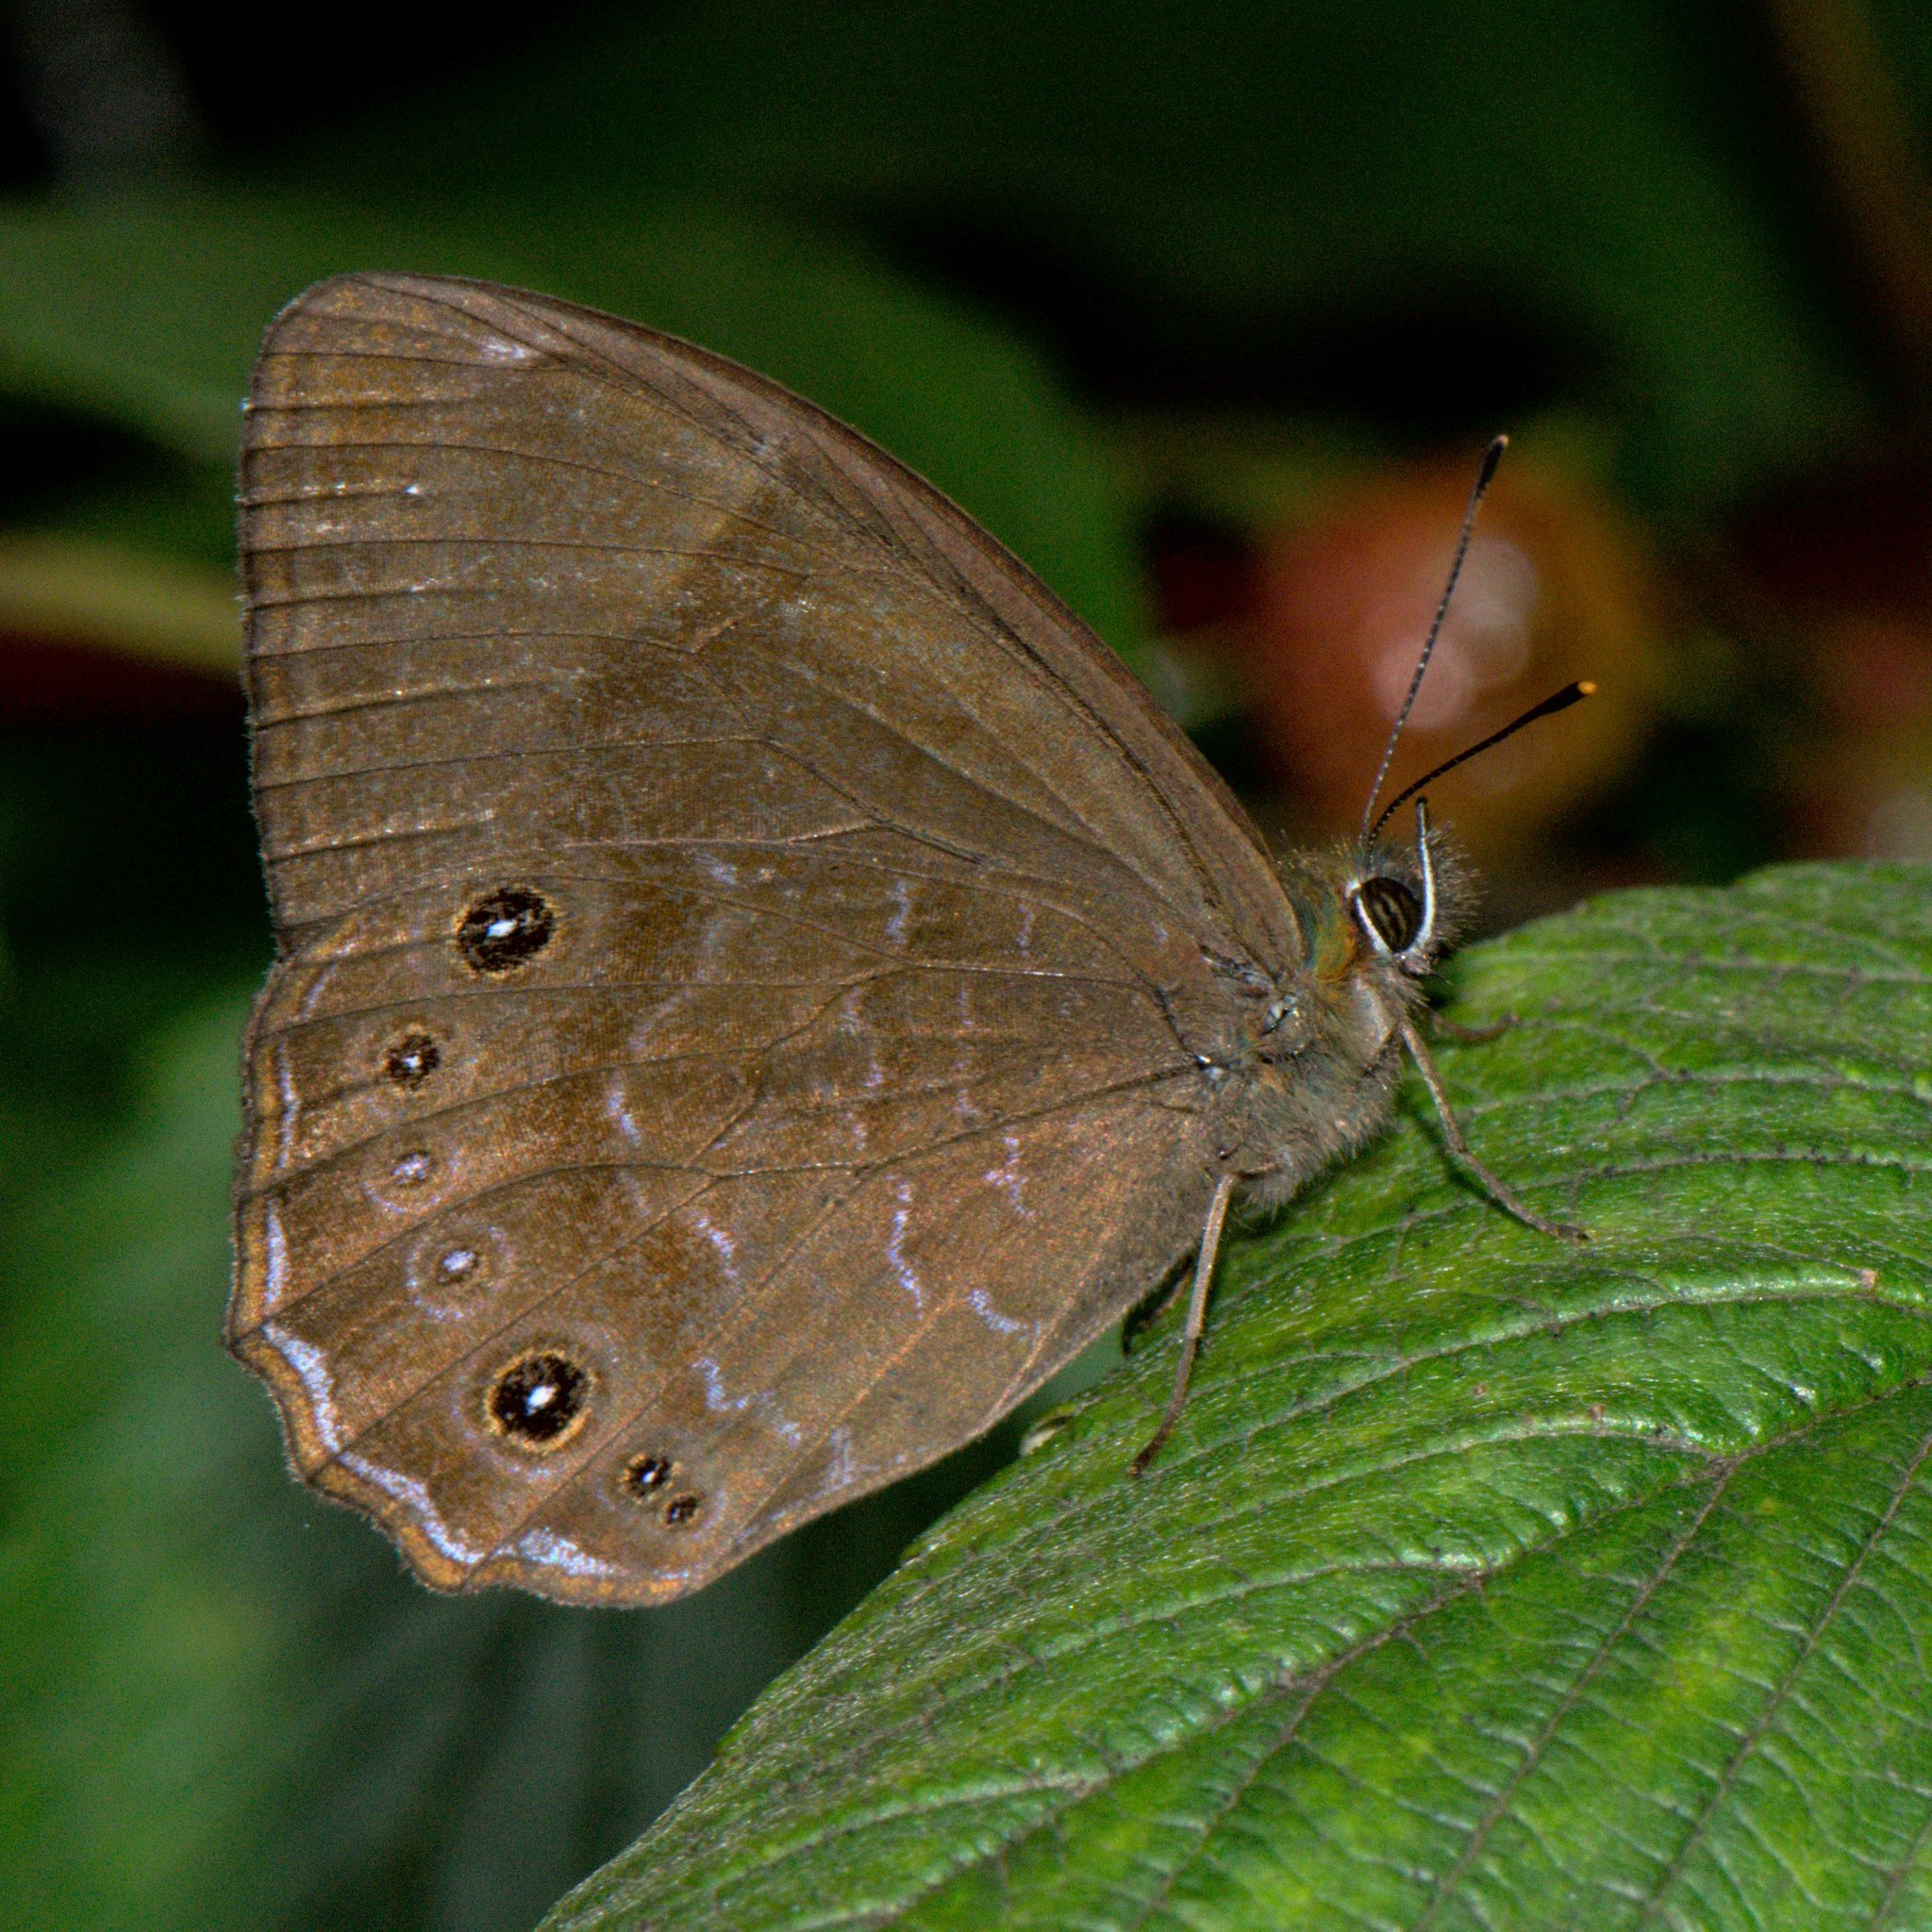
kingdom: Animalia
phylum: Arthropoda
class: Insecta
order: Lepidoptera
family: Nymphalidae
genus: Lethe
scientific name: Lethe sidonis
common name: Common woodbrown butterfly
